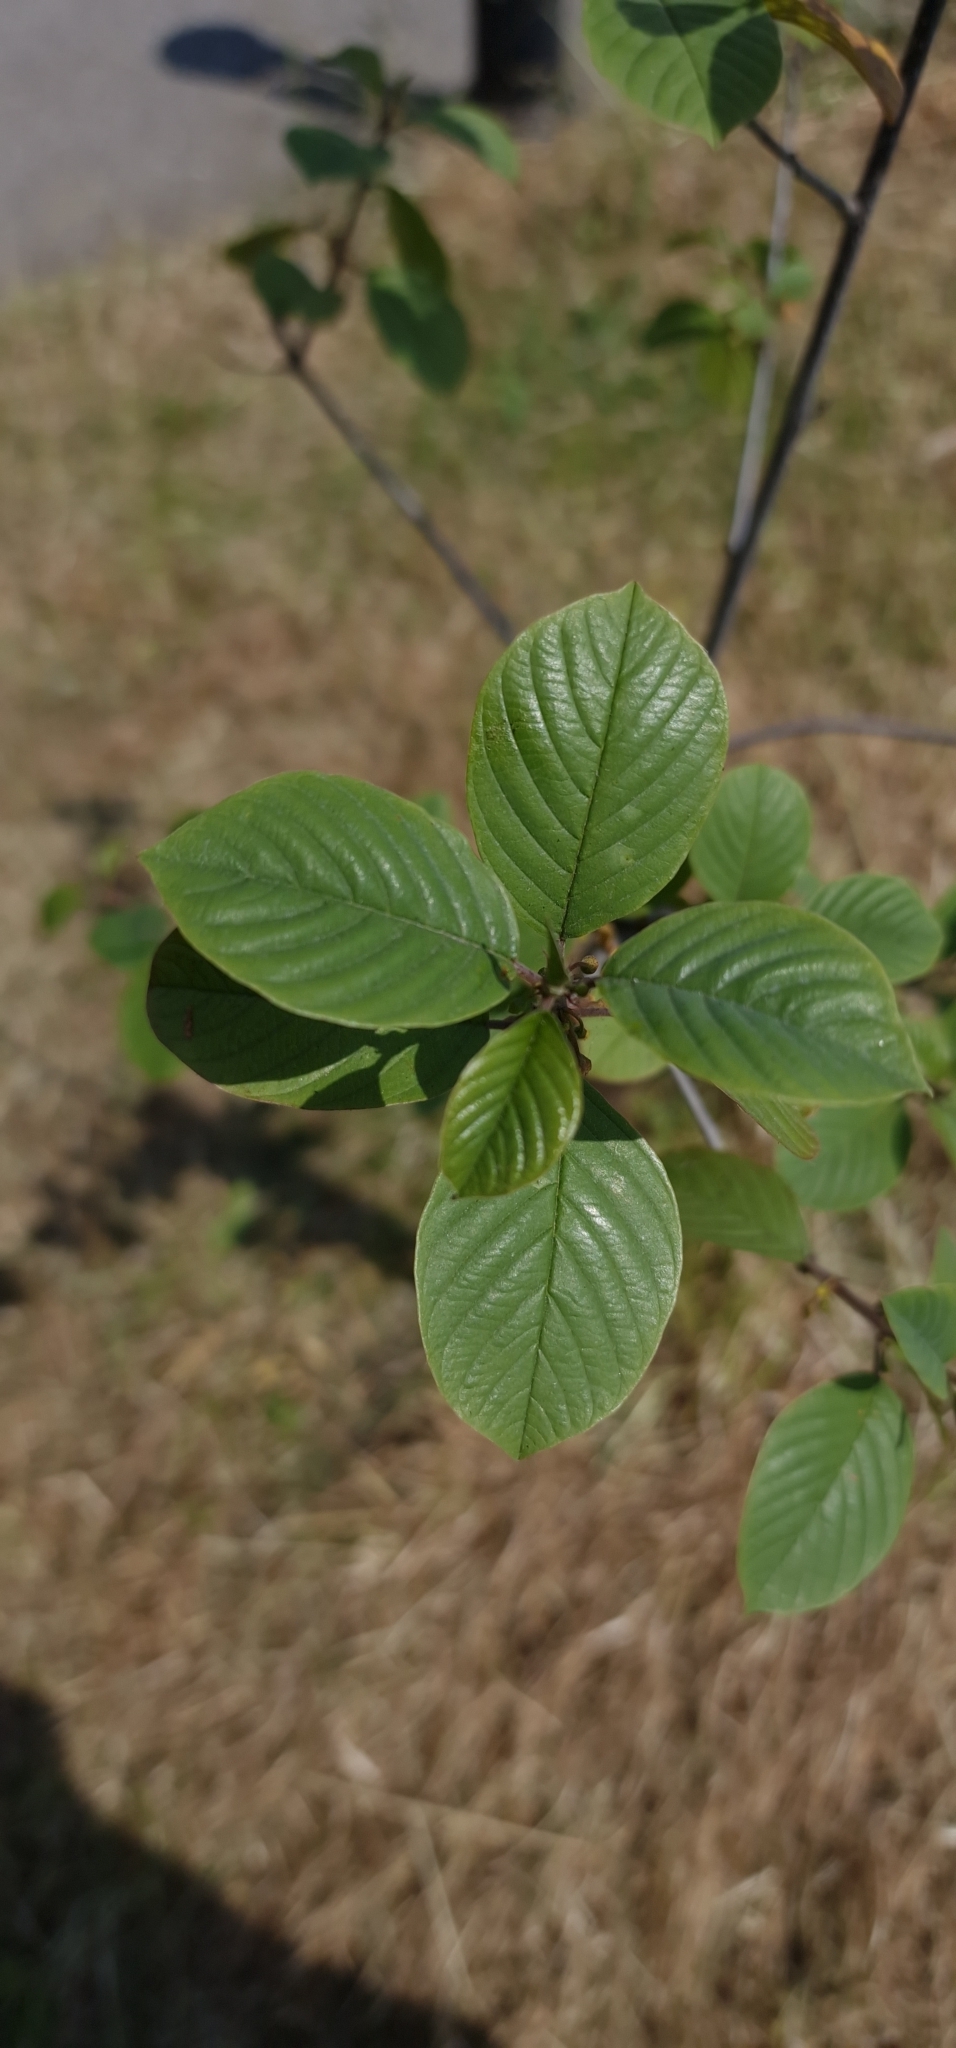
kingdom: Plantae
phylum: Tracheophyta
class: Magnoliopsida
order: Rosales
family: Rhamnaceae
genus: Frangula
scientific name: Frangula alnus
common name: Alder buckthorn
